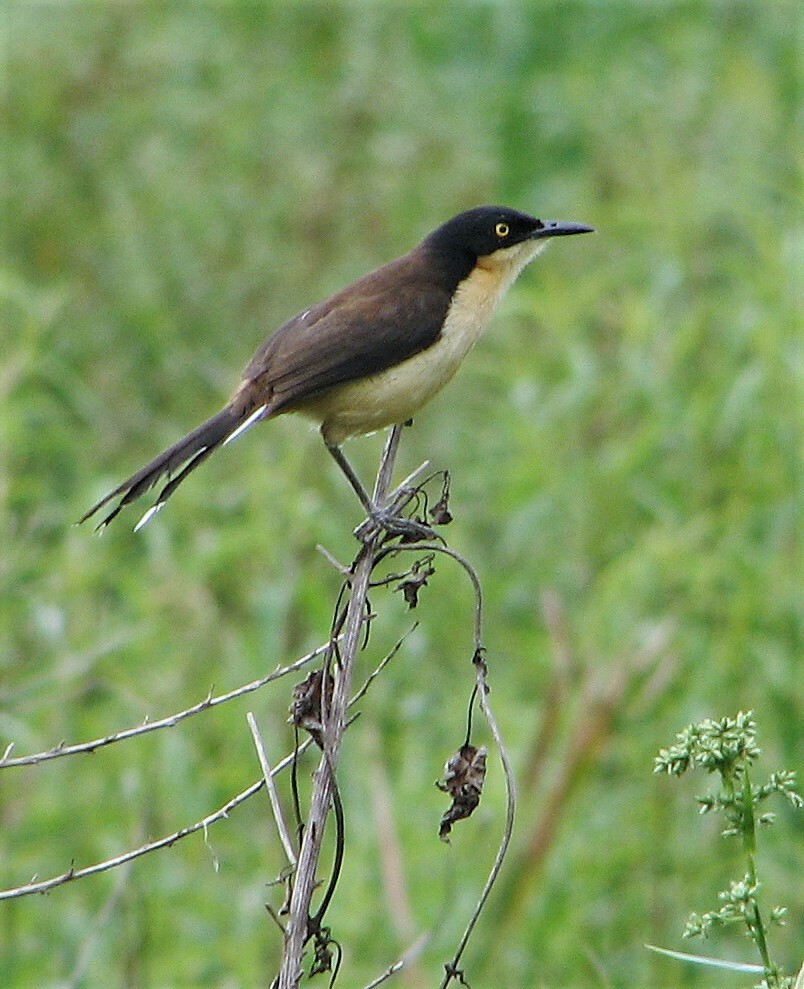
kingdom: Animalia
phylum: Chordata
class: Aves
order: Passeriformes
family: Donacobiidae
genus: Donacobius
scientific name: Donacobius atricapilla
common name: Black-capped donacobius
